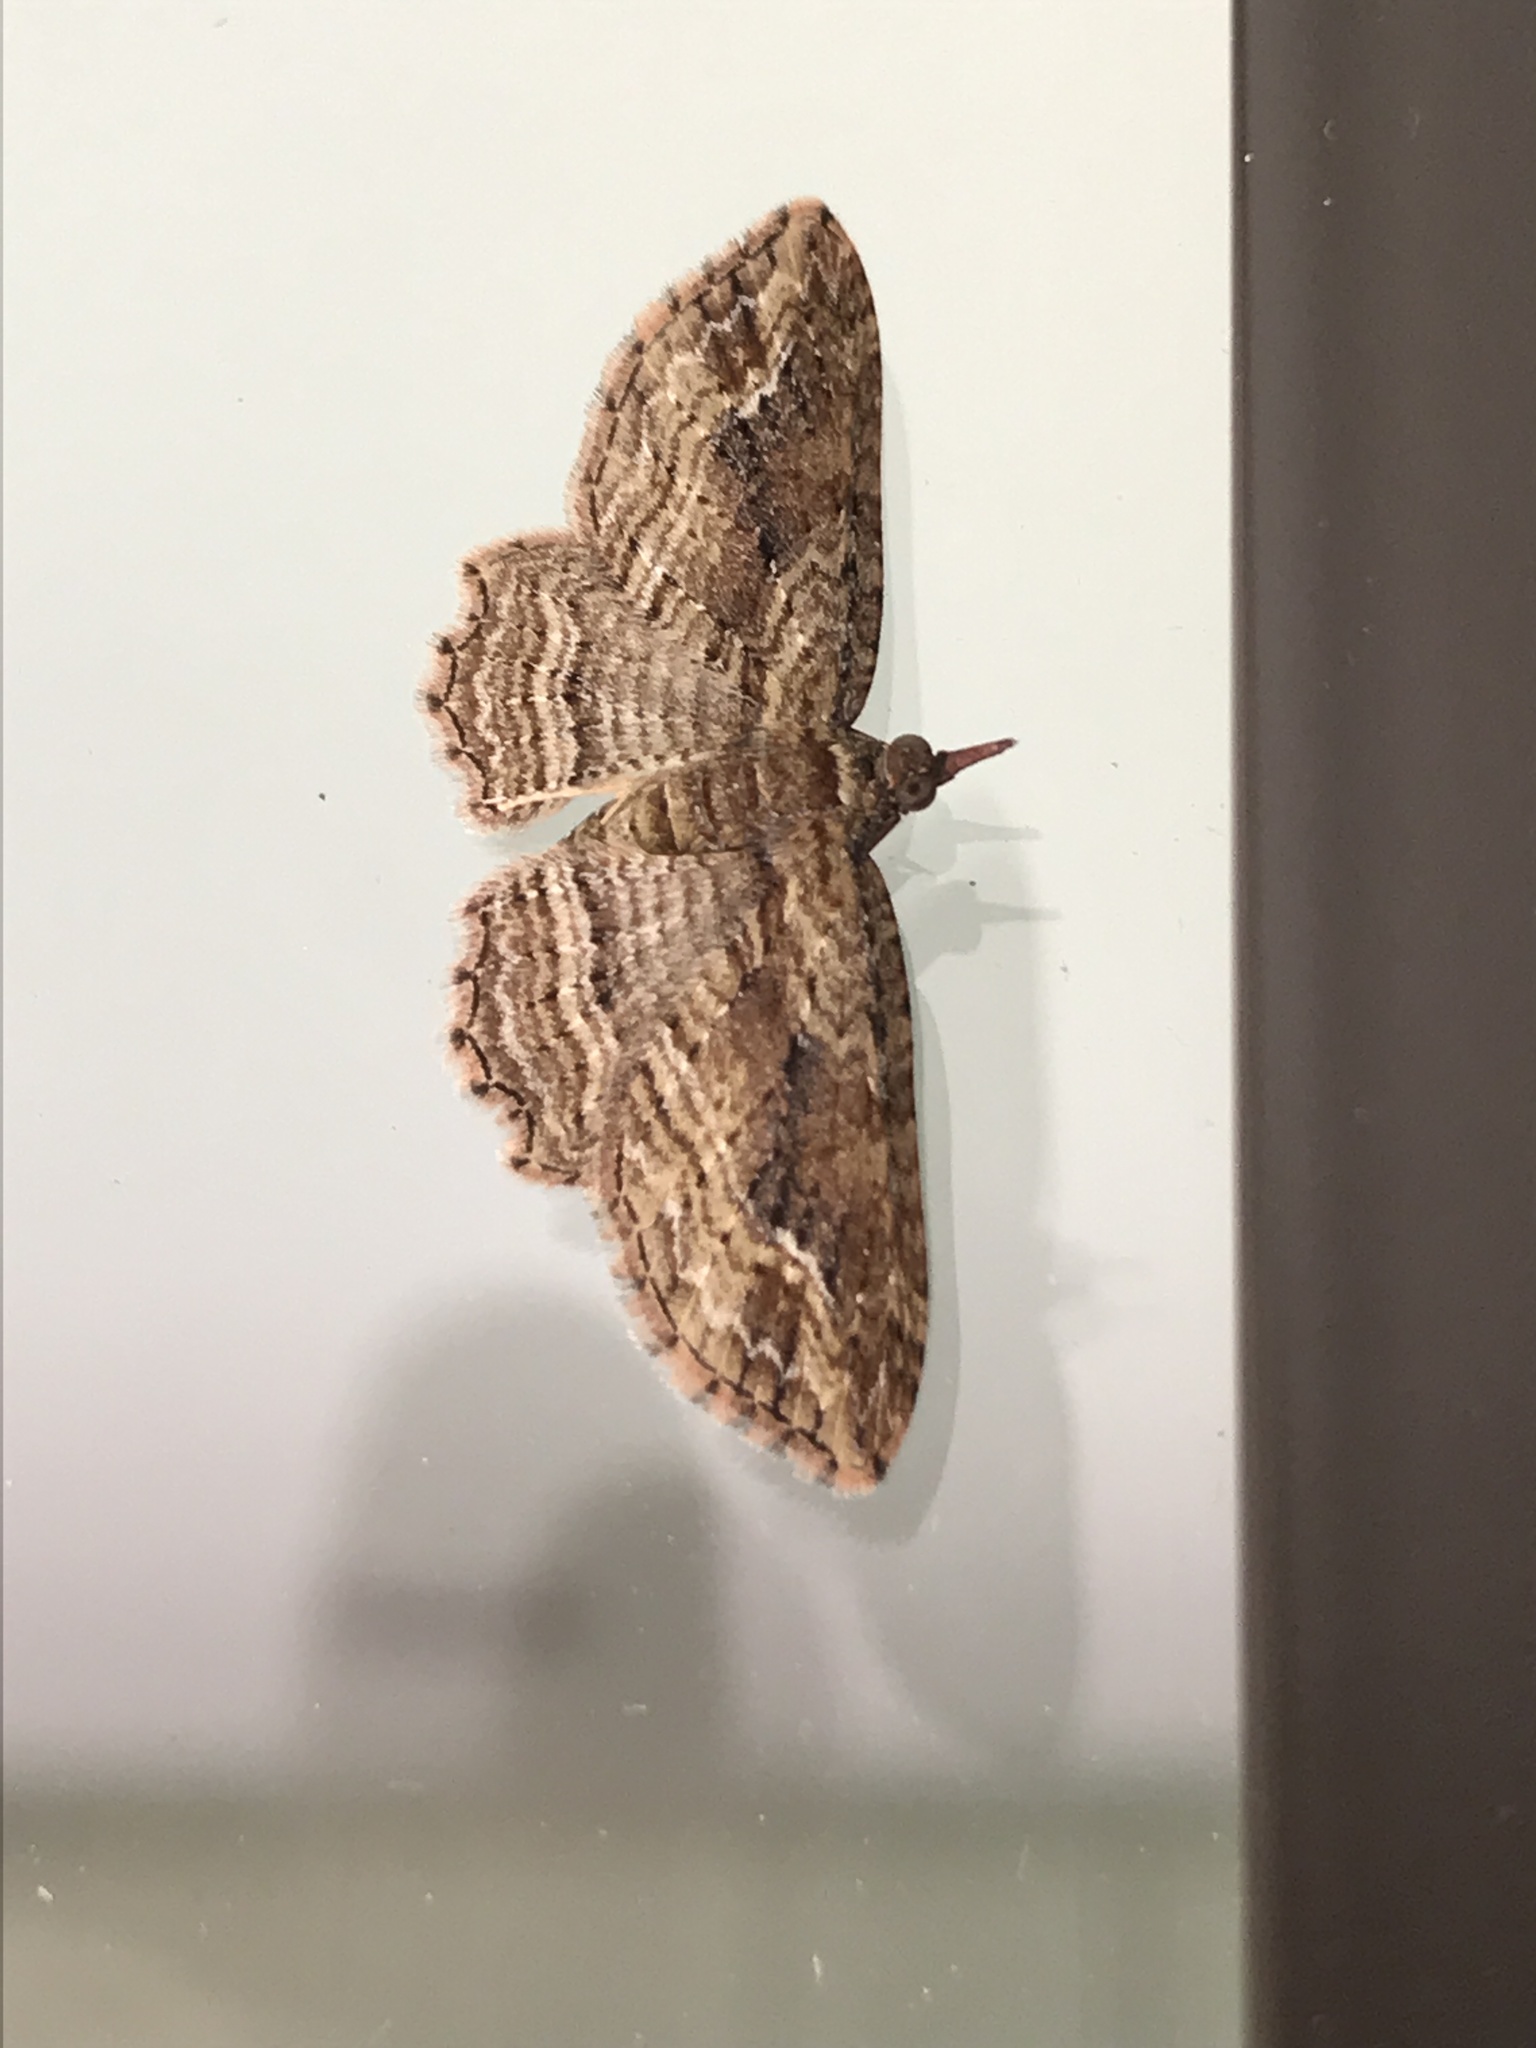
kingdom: Animalia
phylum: Arthropoda
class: Insecta
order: Lepidoptera
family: Geometridae
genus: Chloroclystis
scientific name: Chloroclystis filata
